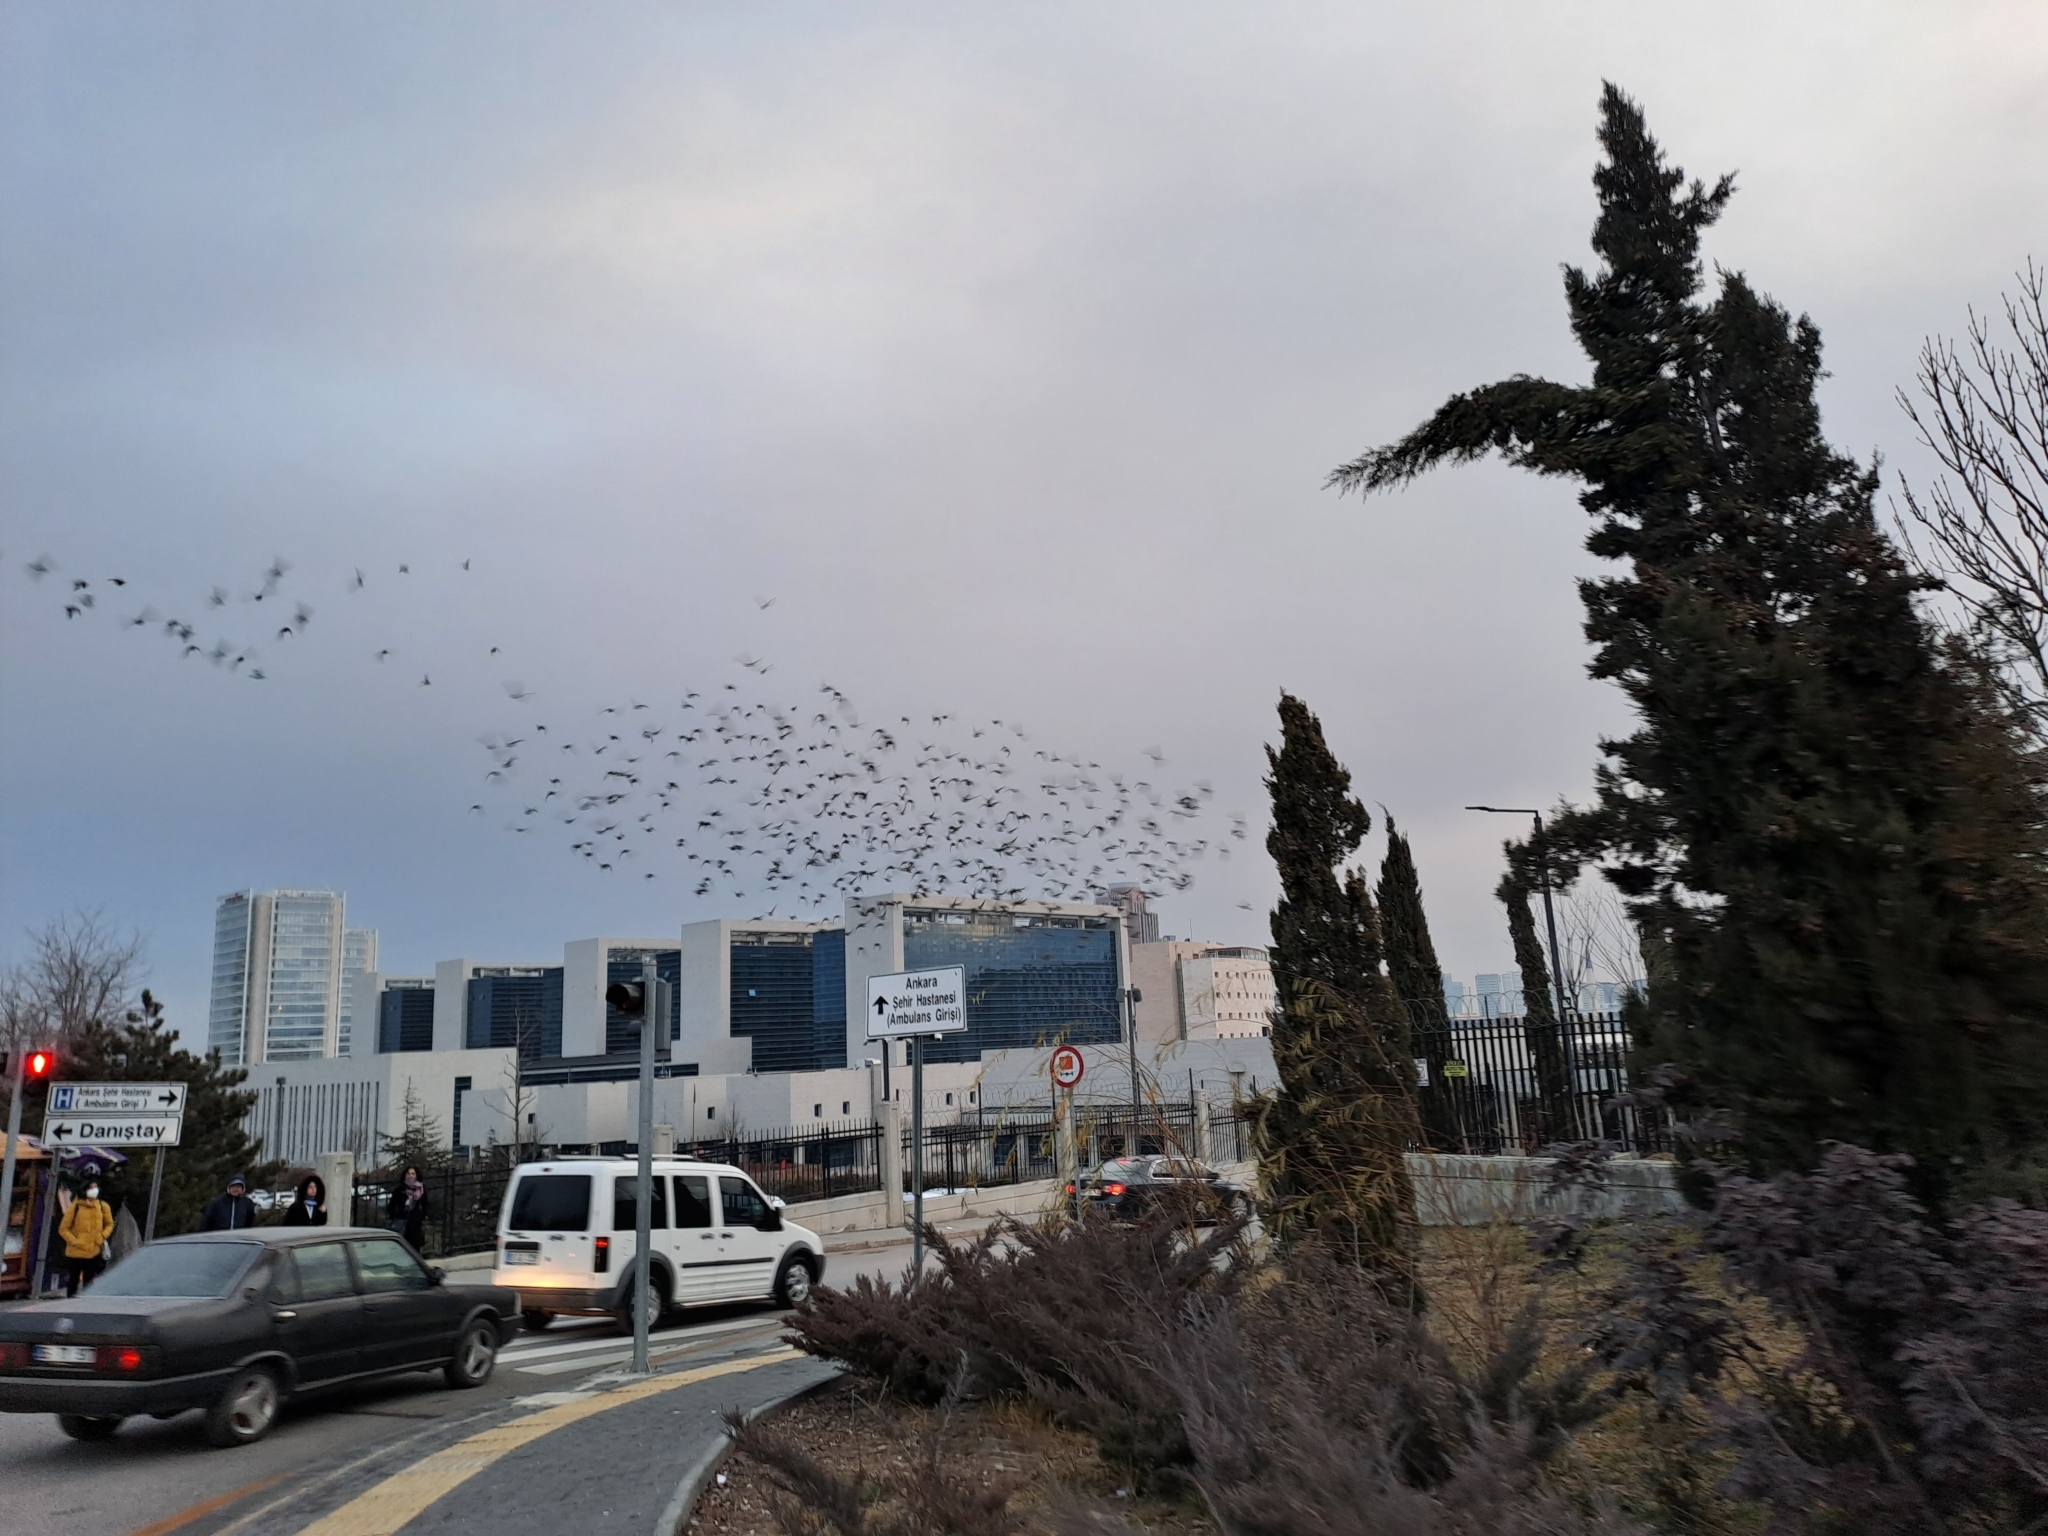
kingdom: Animalia
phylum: Chordata
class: Aves
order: Passeriformes
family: Sturnidae
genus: Sturnus
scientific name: Sturnus vulgaris
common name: Common starling
